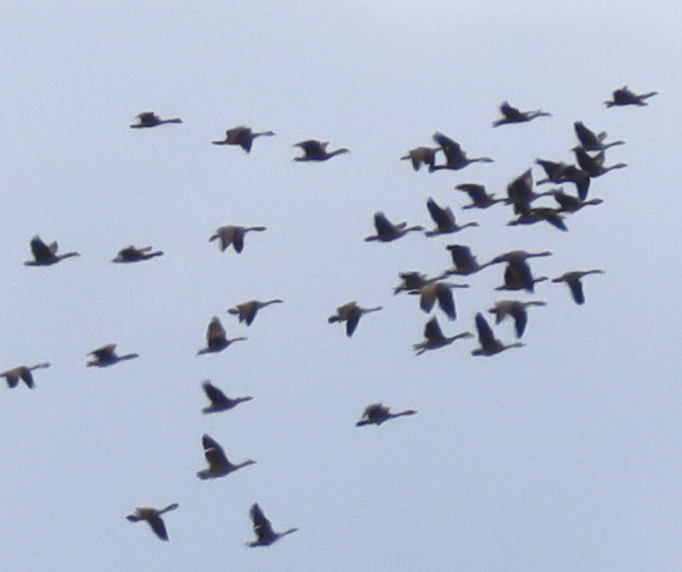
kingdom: Animalia
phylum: Chordata
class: Aves
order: Anseriformes
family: Anatidae
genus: Branta
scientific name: Branta canadensis
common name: Canada goose
